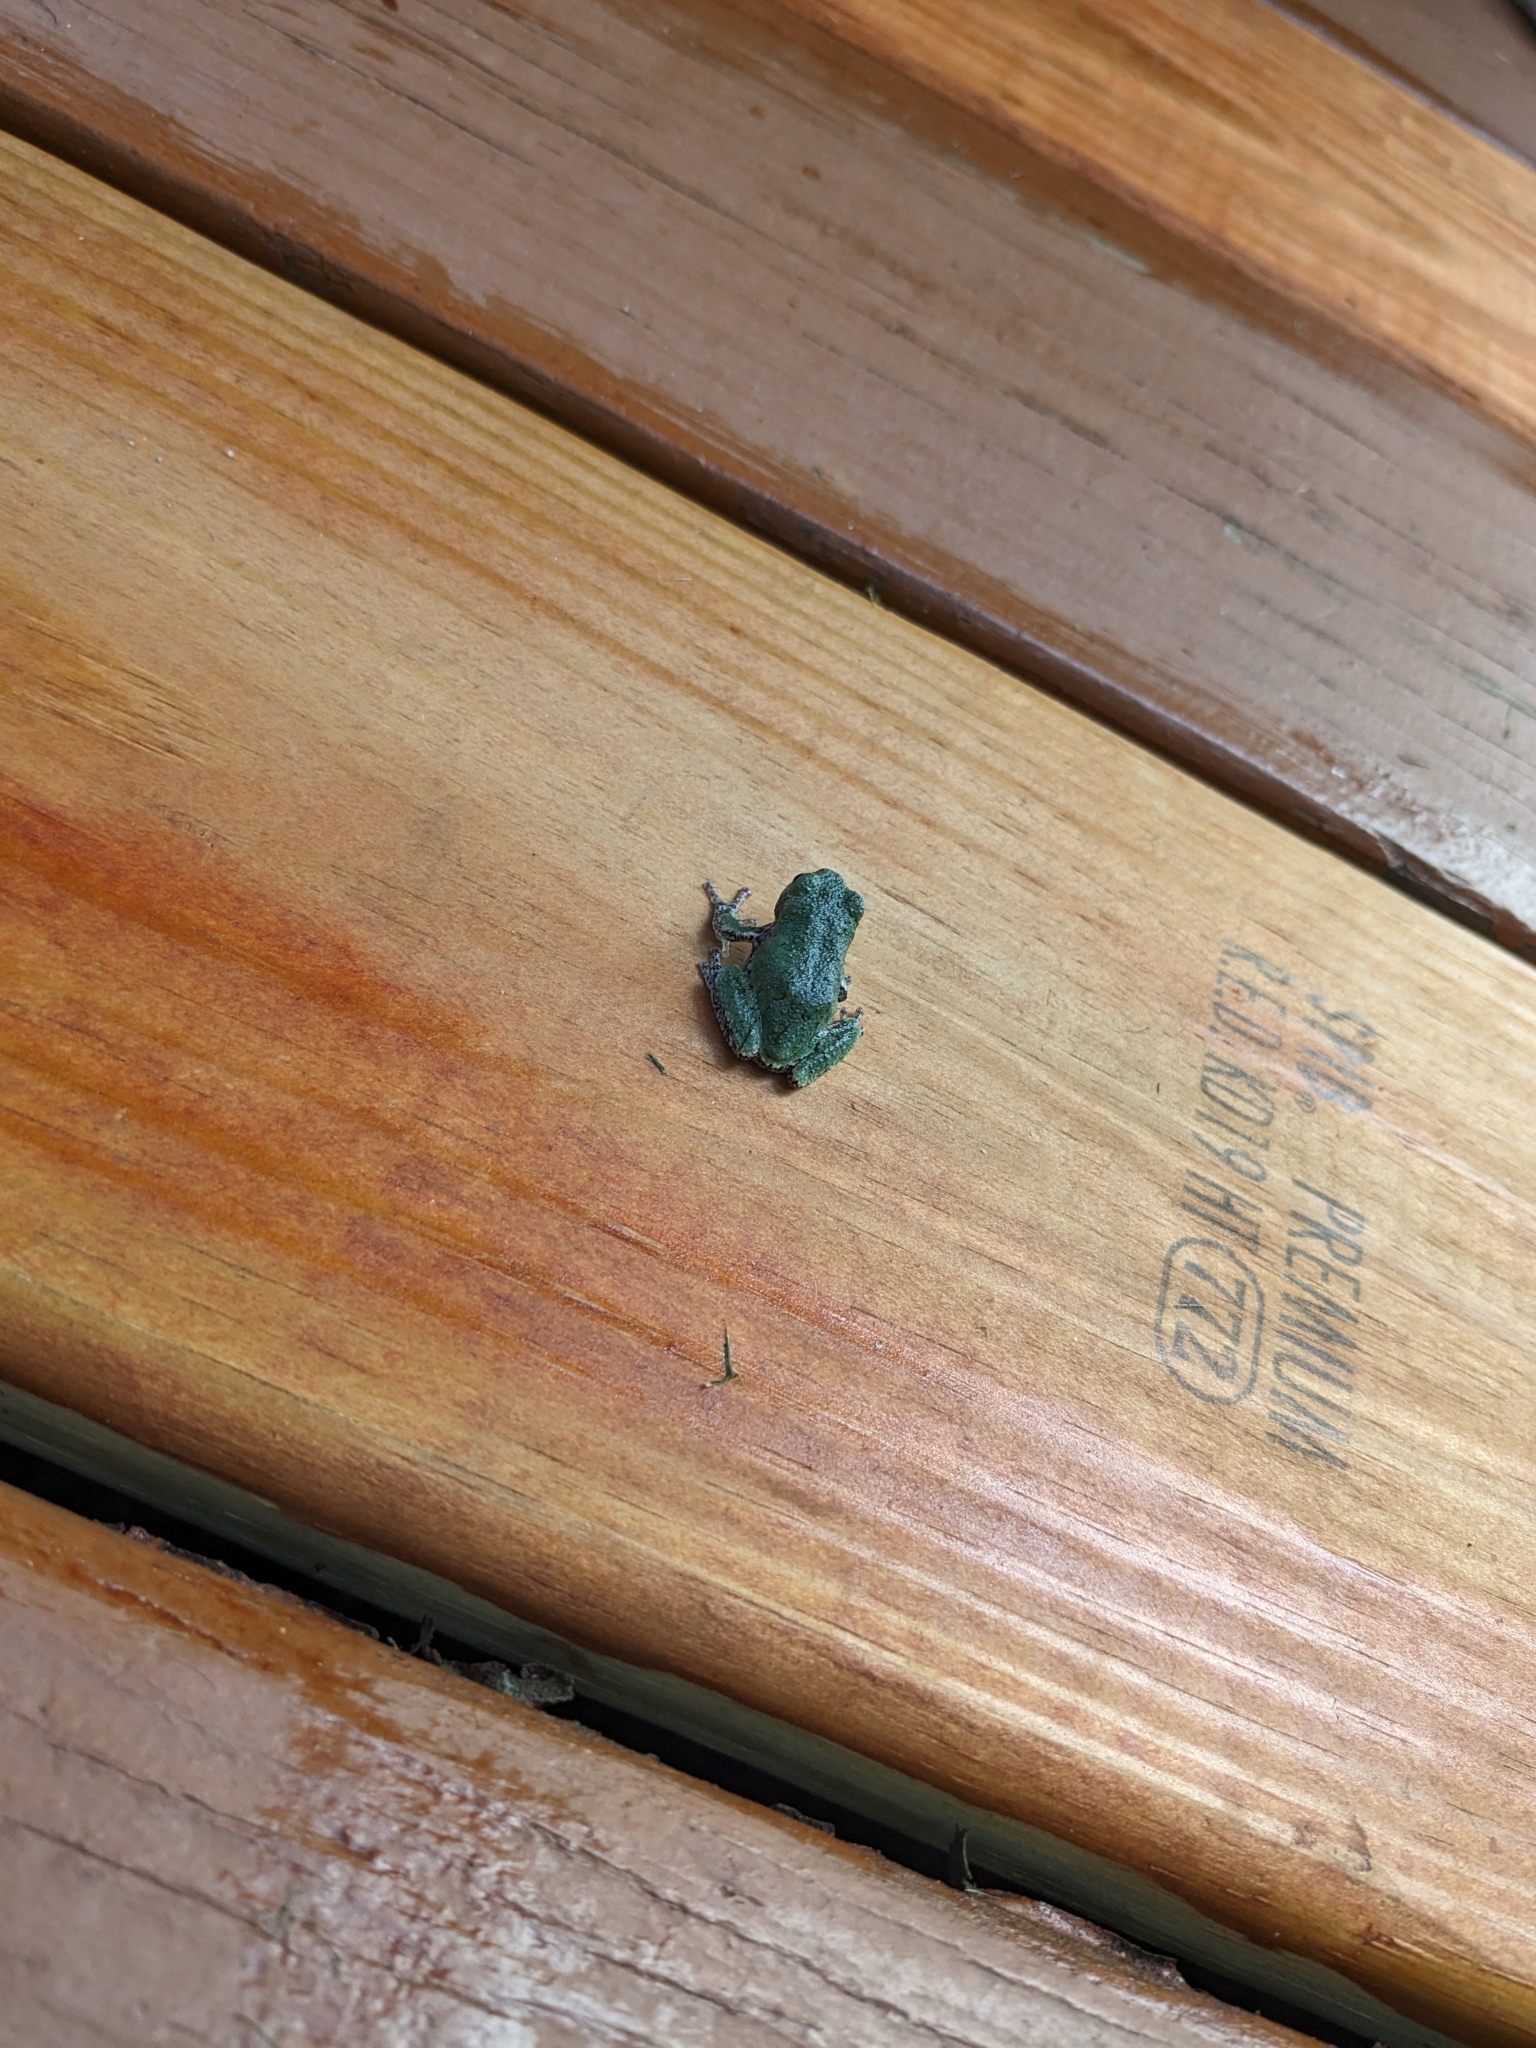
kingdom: Animalia
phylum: Chordata
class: Amphibia
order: Anura
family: Hylidae
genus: Hyla
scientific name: Hyla
